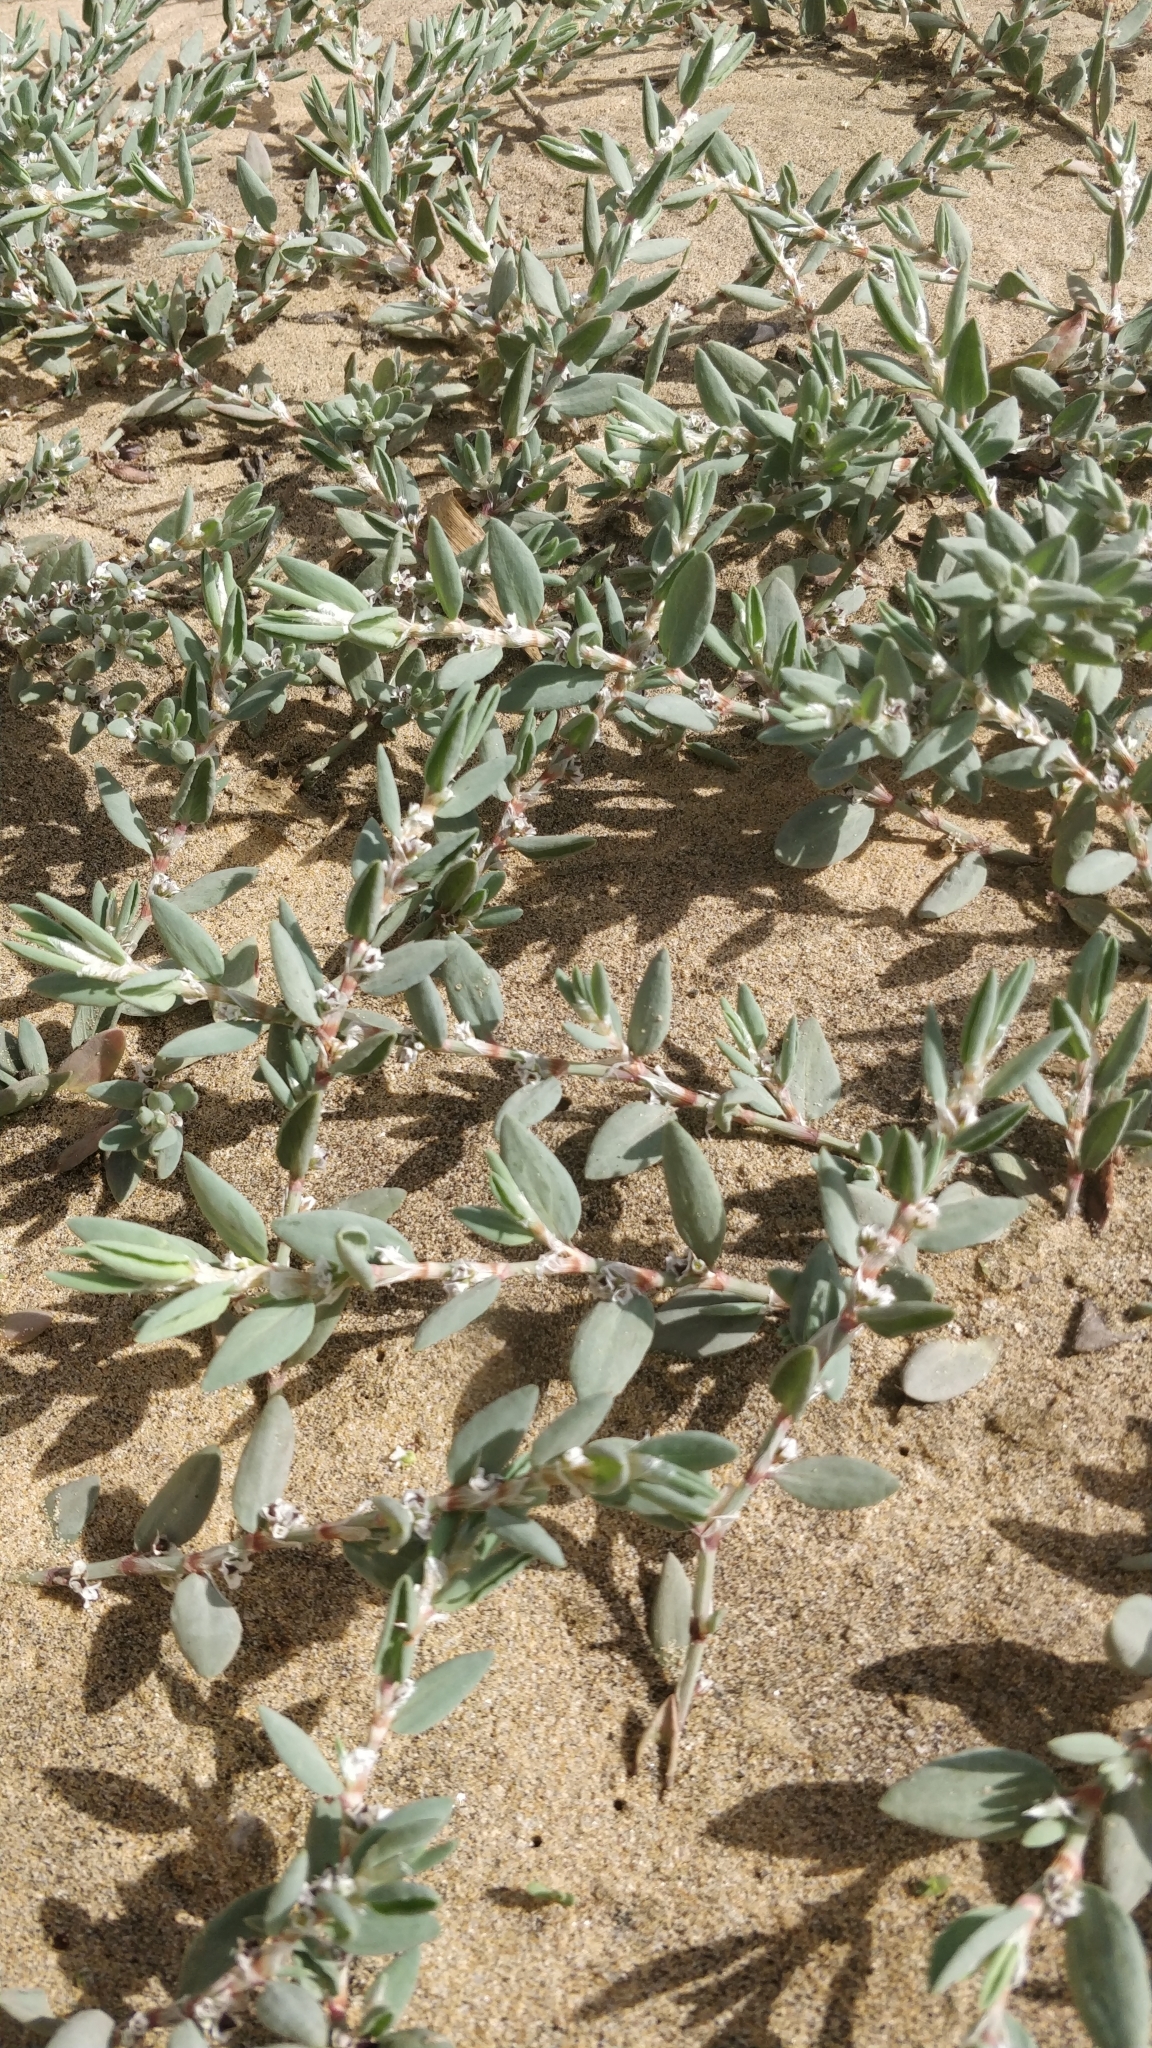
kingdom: Plantae
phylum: Tracheophyta
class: Magnoliopsida
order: Caryophyllales
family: Polygonaceae
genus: Polygonum
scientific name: Polygonum maritimum
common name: Sea knotgrass
